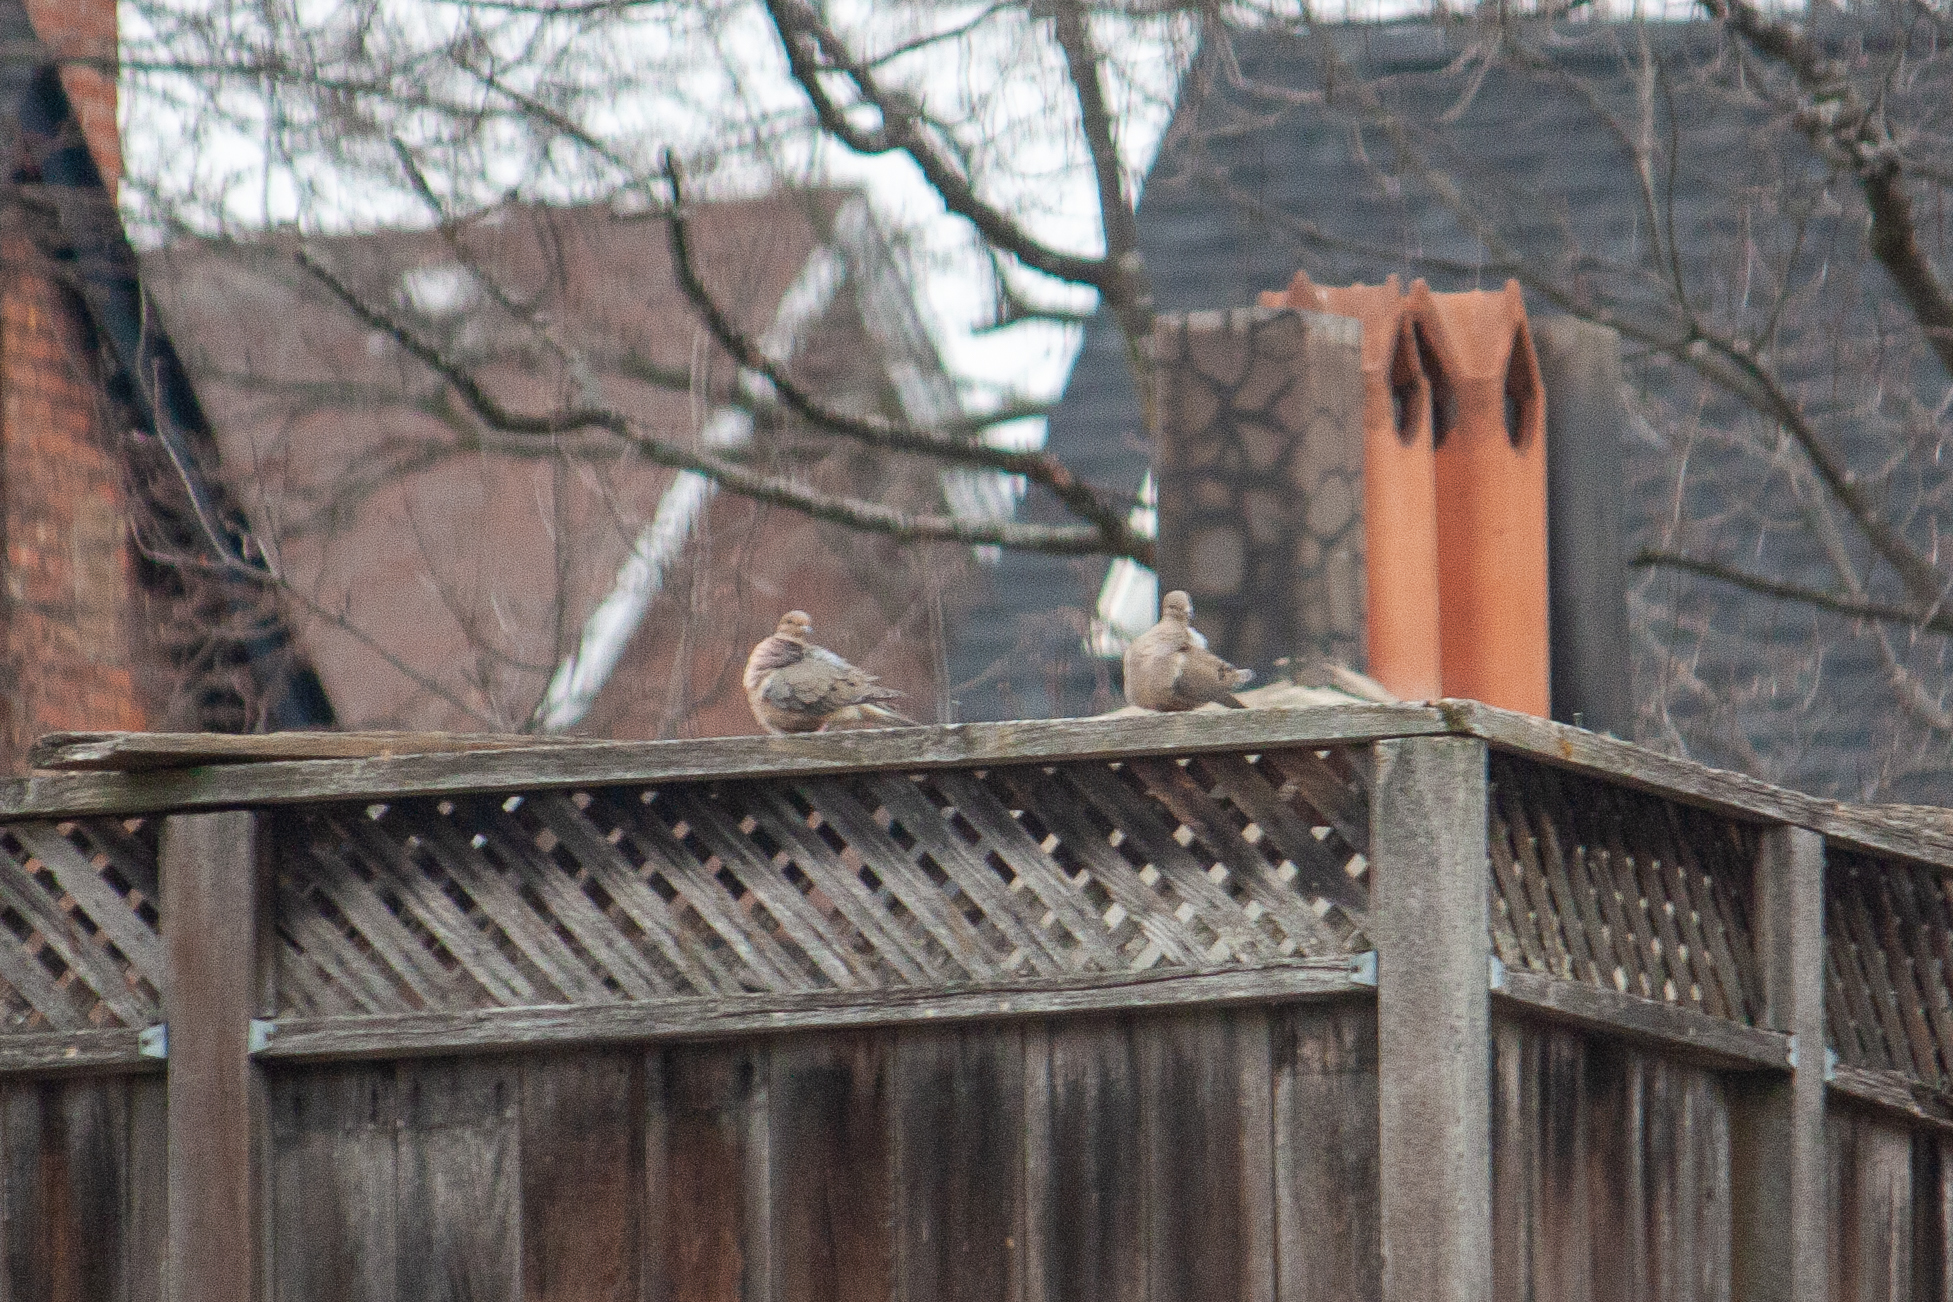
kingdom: Animalia
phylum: Chordata
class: Aves
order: Columbiformes
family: Columbidae
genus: Zenaida
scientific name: Zenaida macroura
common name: Mourning dove
